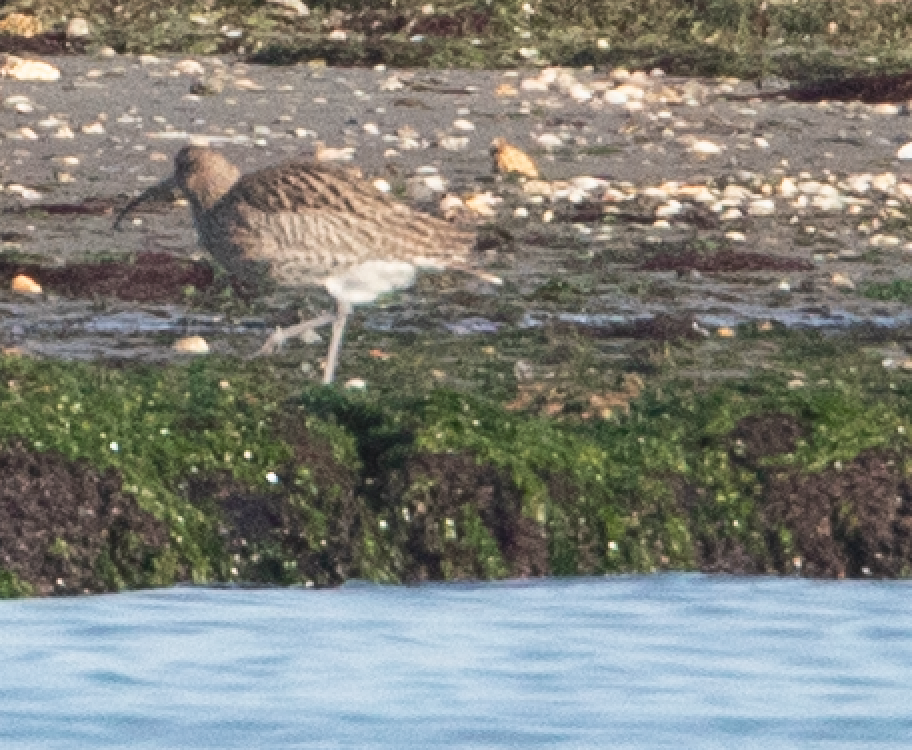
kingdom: Animalia
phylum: Chordata
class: Aves
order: Charadriiformes
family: Scolopacidae
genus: Numenius
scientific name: Numenius arquata
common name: Eurasian curlew
